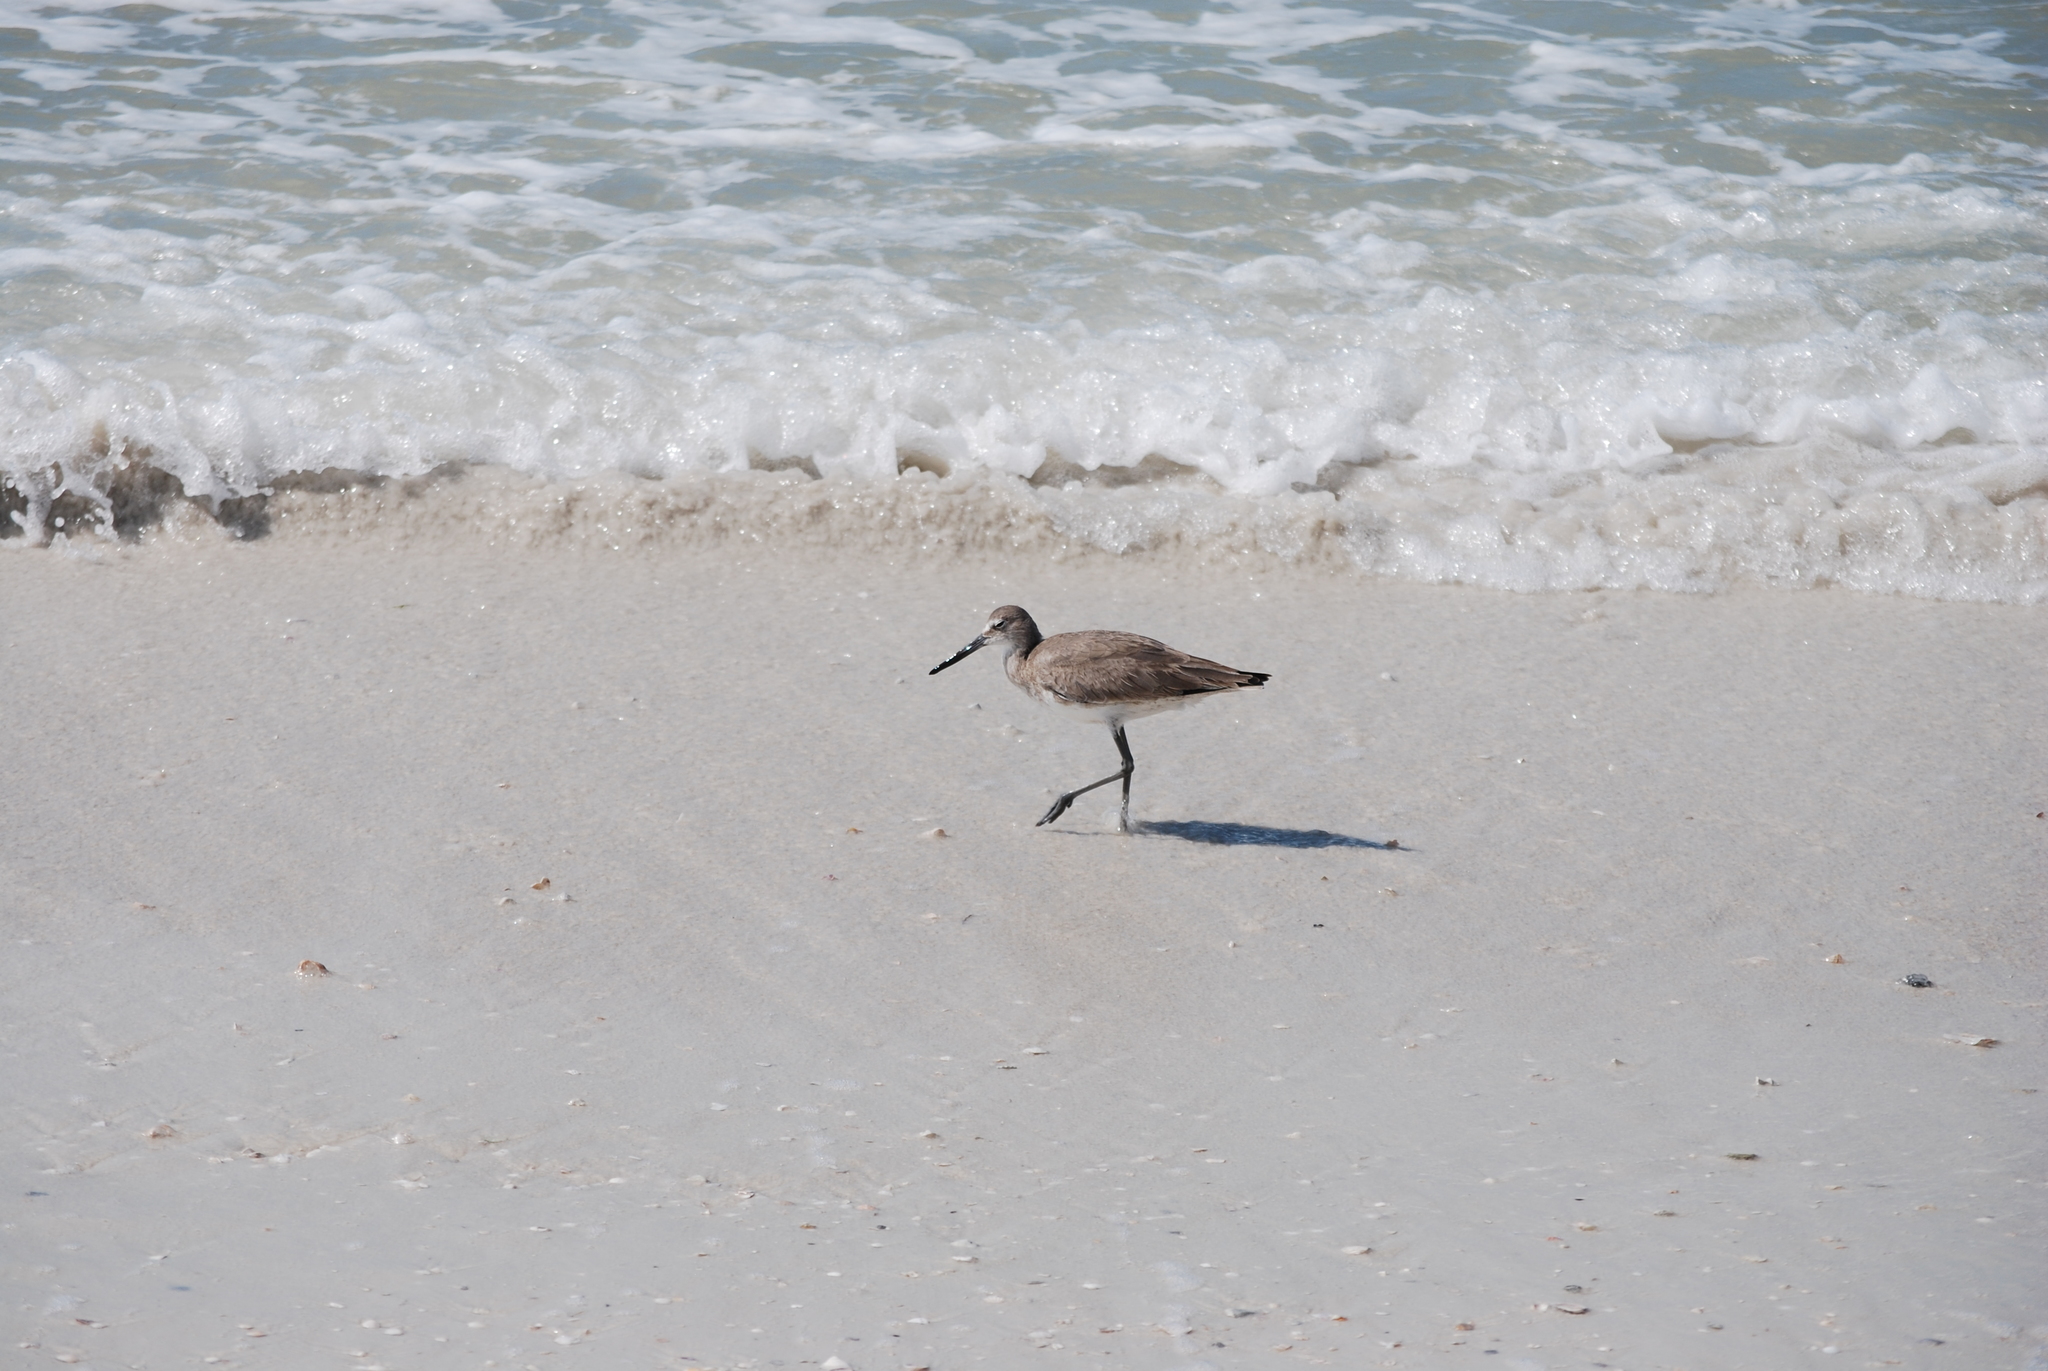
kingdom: Animalia
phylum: Chordata
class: Aves
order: Charadriiformes
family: Scolopacidae
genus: Tringa
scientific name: Tringa semipalmata
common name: Willet
